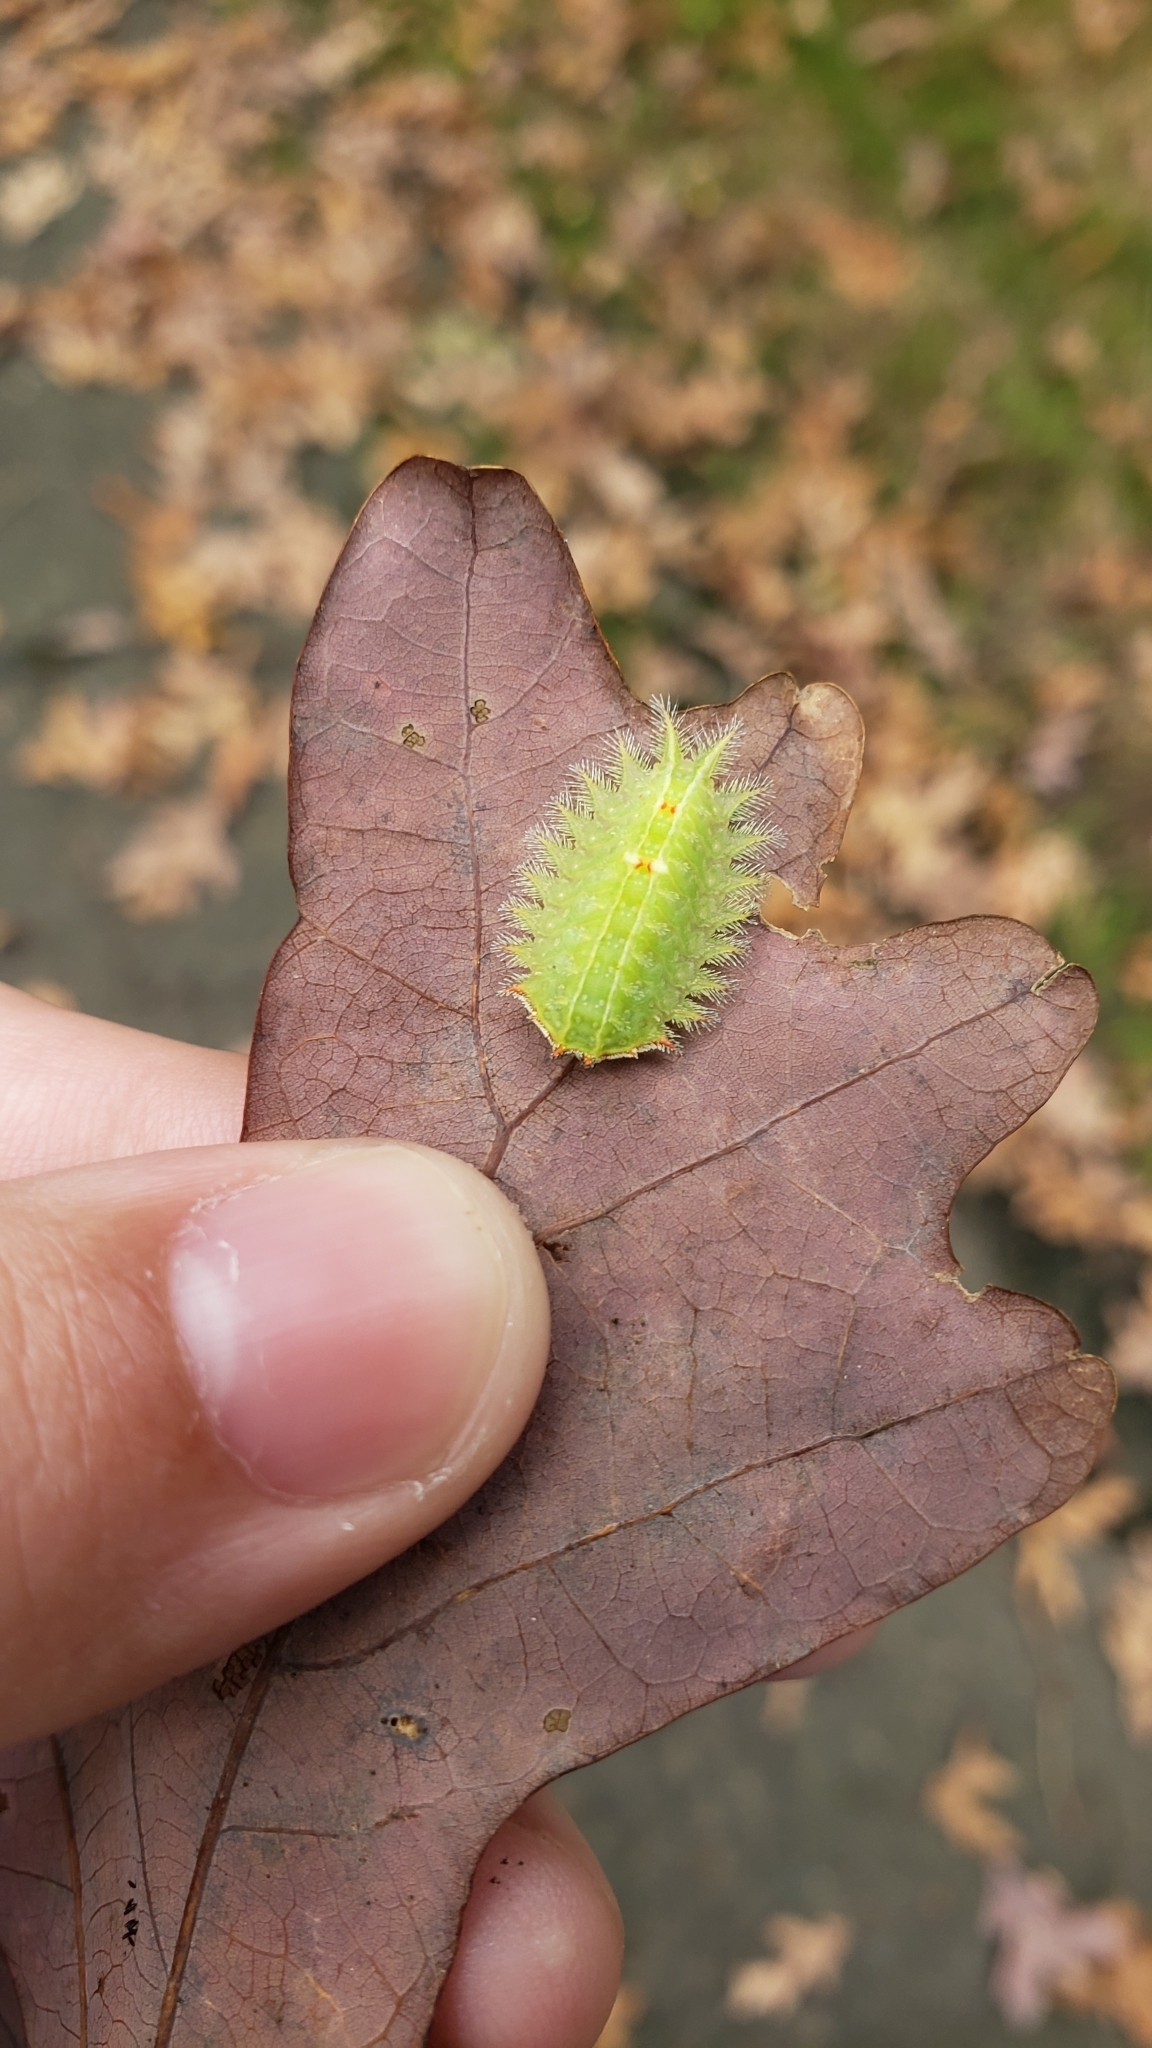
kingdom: Animalia
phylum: Arthropoda
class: Insecta
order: Lepidoptera
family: Limacodidae
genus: Isa
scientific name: Isa textula
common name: Crowned slug moth
